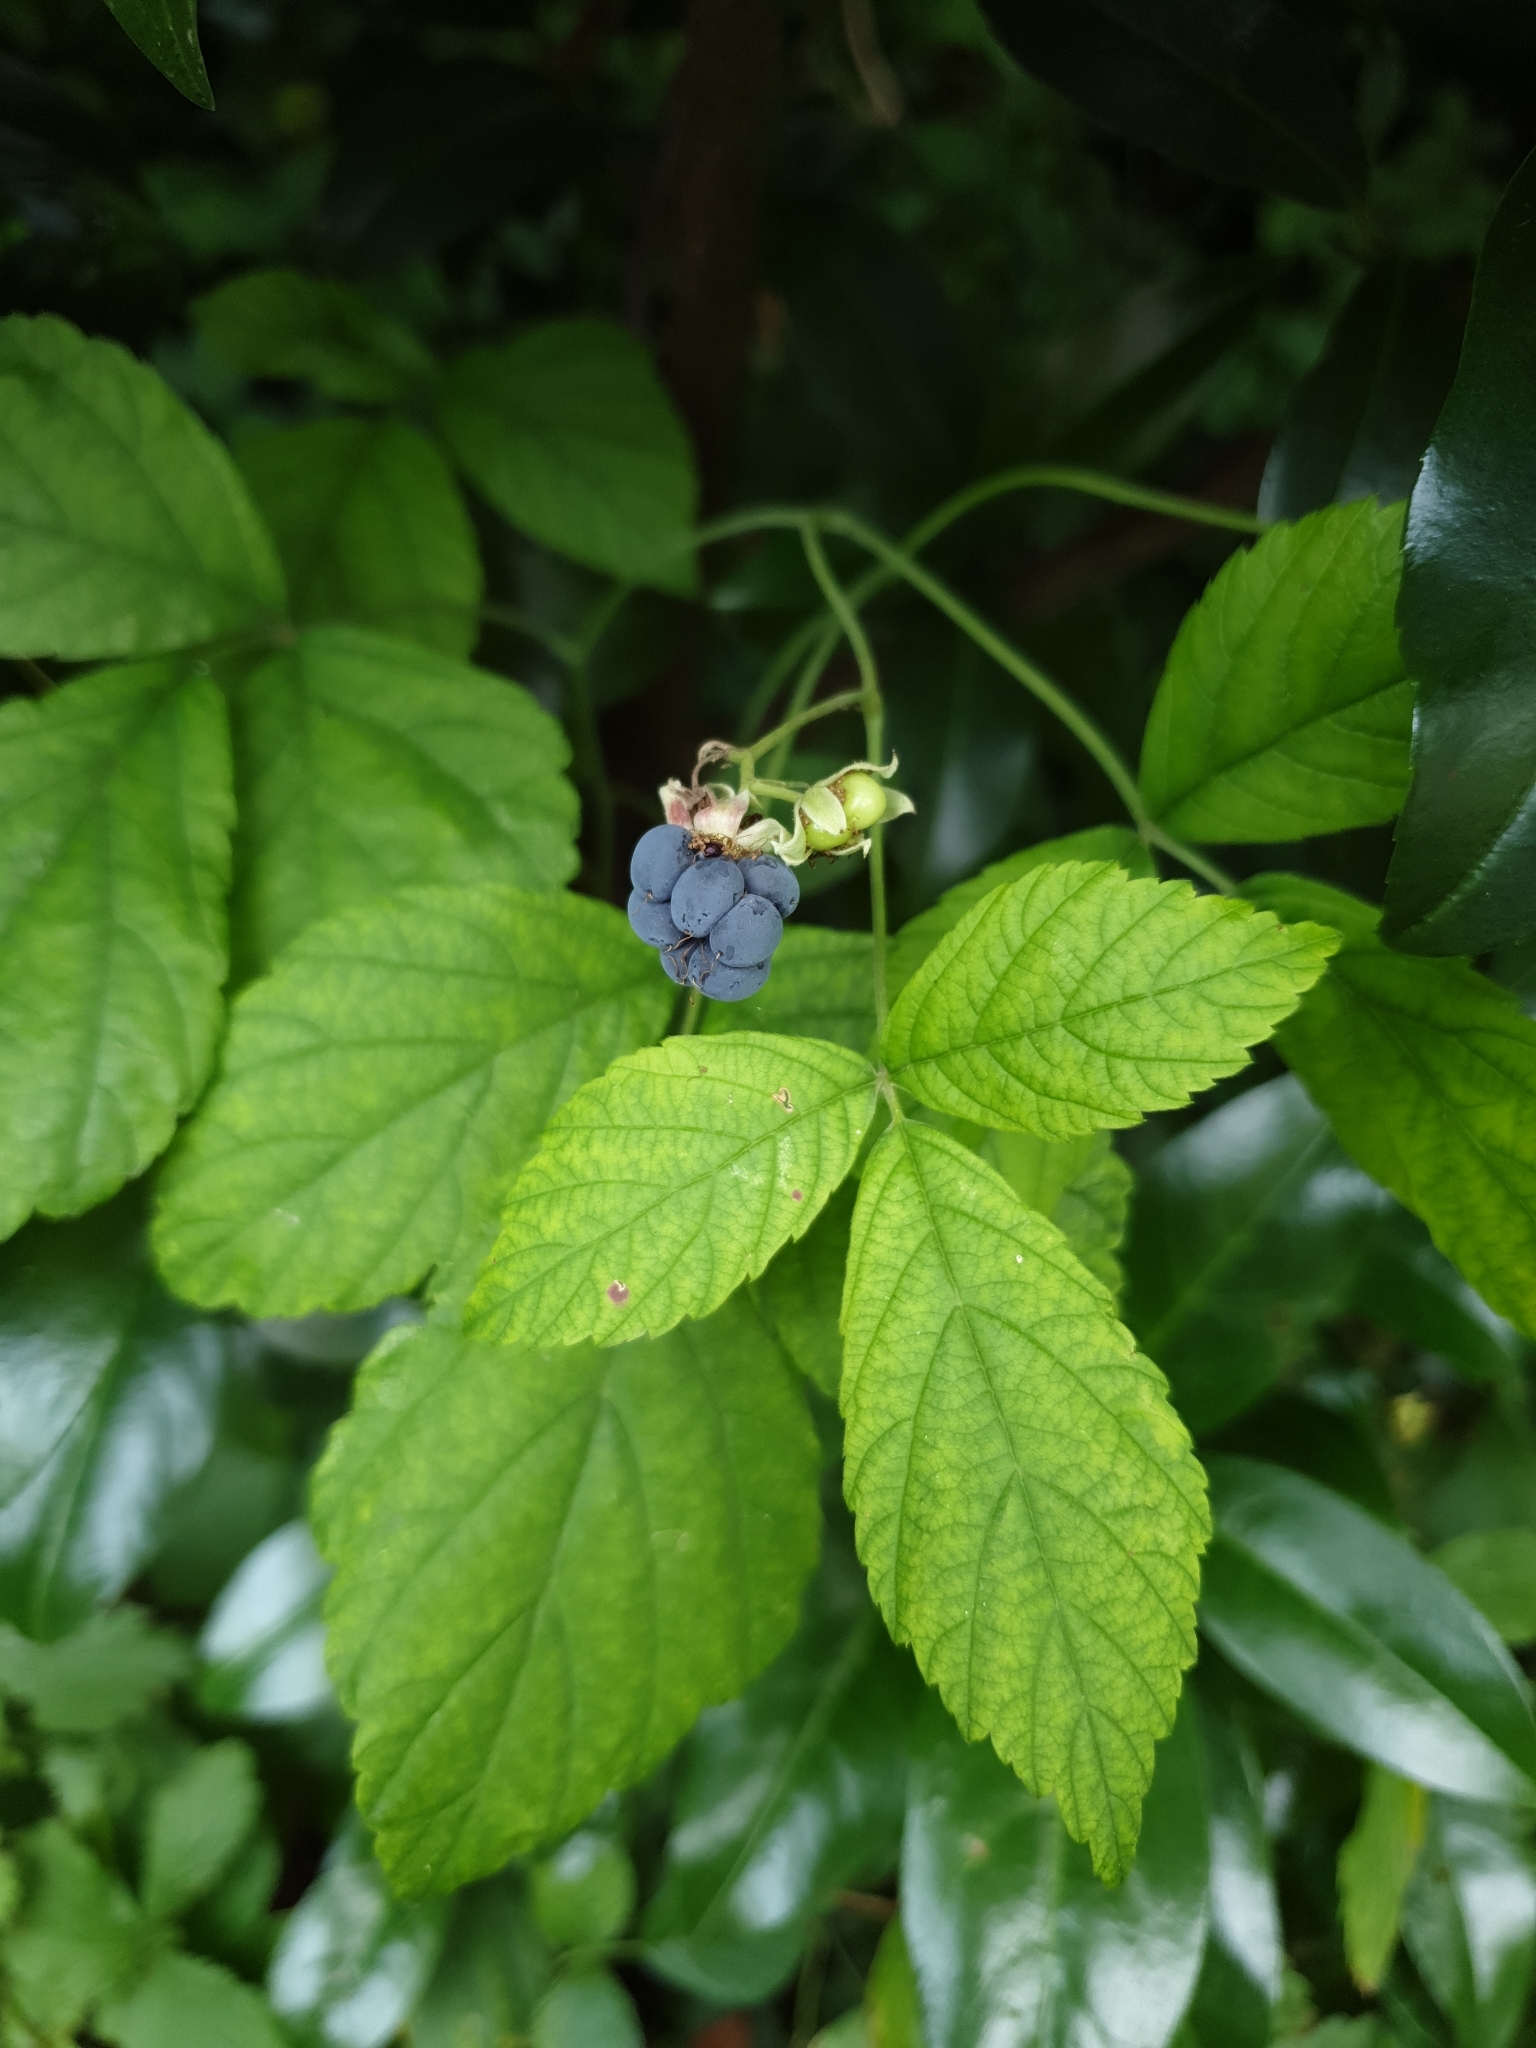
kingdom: Plantae
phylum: Tracheophyta
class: Magnoliopsida
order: Rosales
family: Rosaceae
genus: Rubus
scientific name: Rubus caesius
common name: Dewberry
